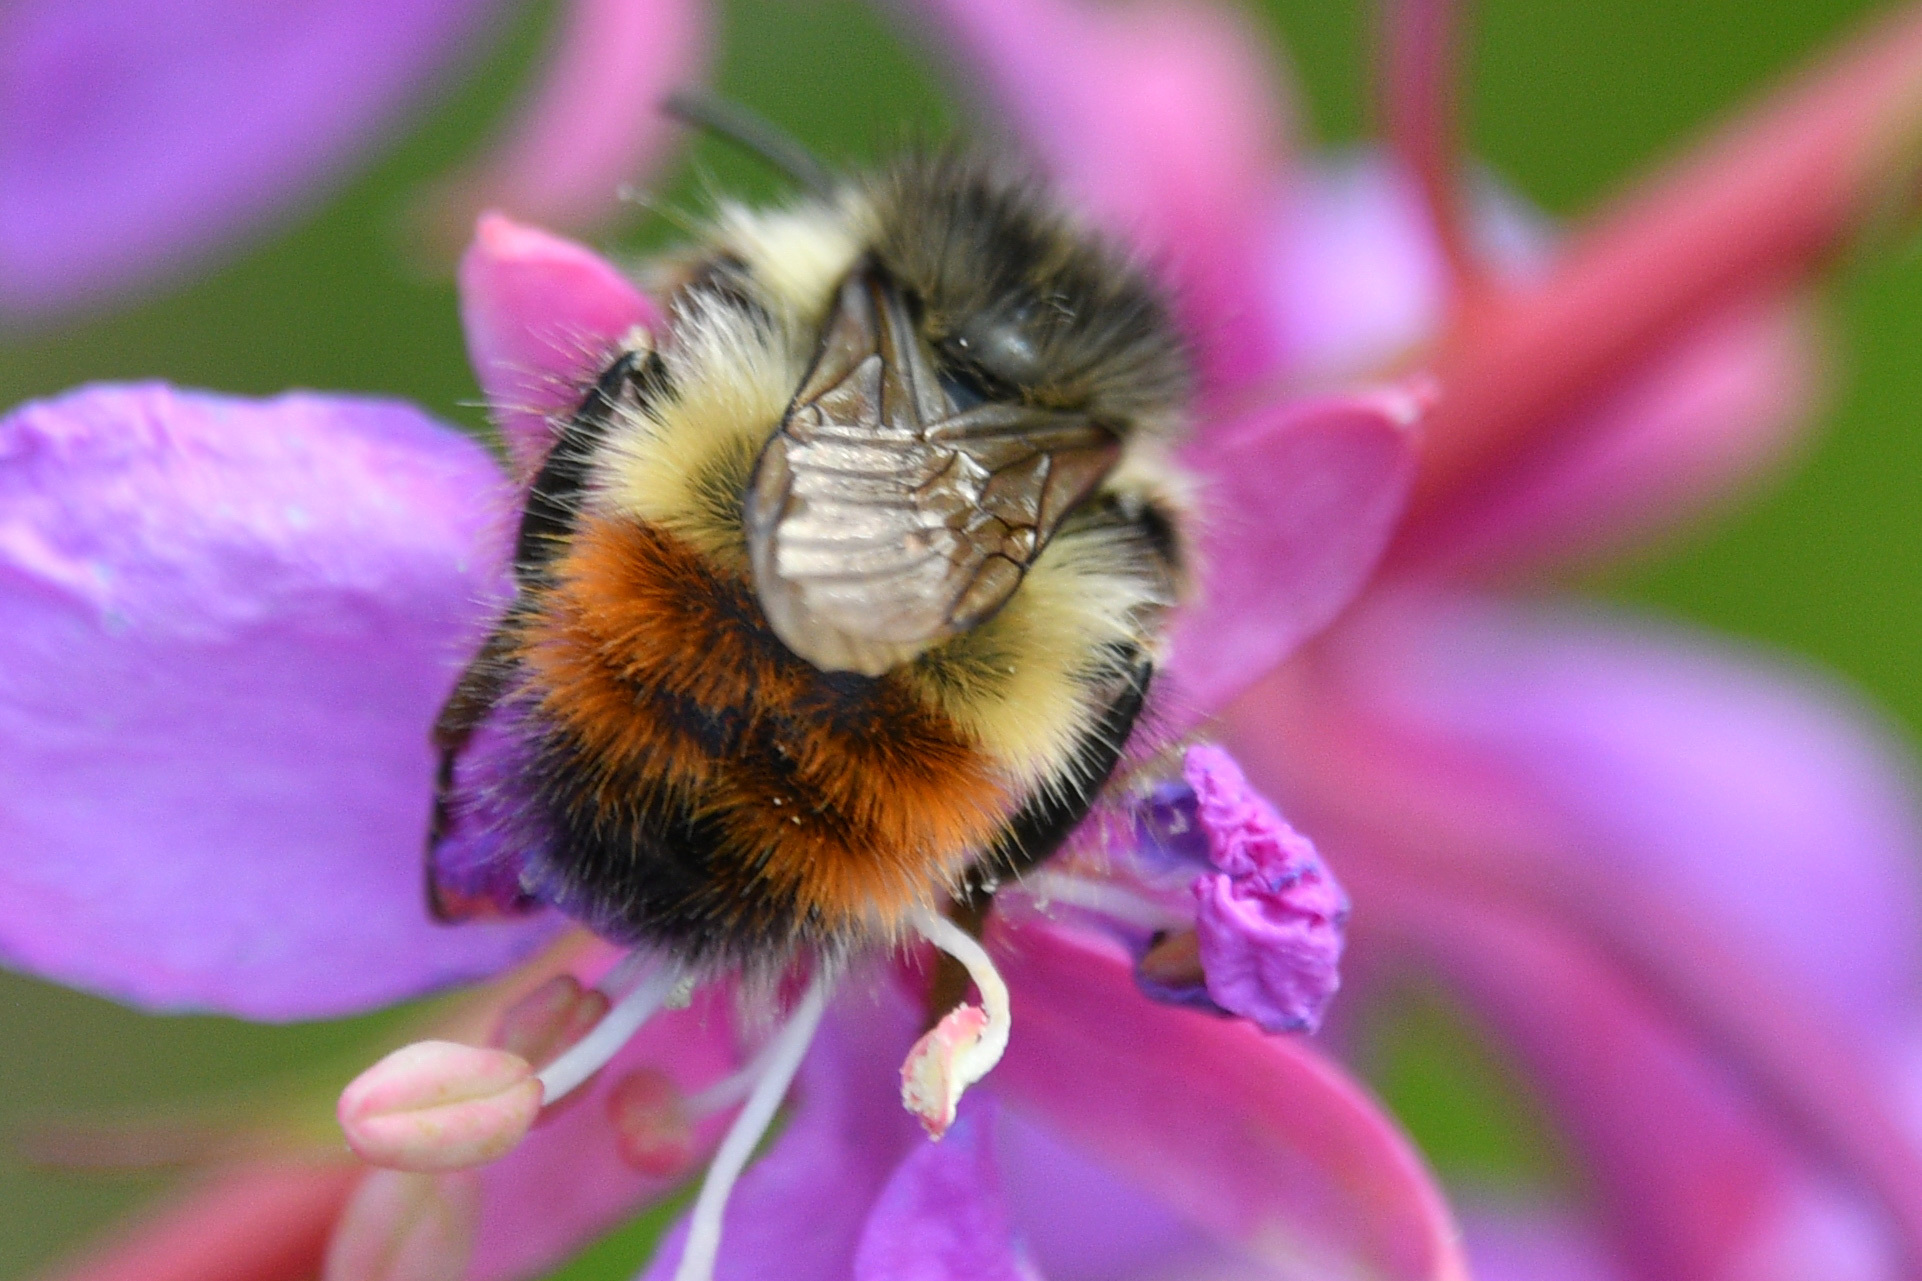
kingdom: Animalia
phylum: Arthropoda
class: Insecta
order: Hymenoptera
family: Apidae
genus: Bombus
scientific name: Bombus flavifrons
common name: Yellow head bumble bee
